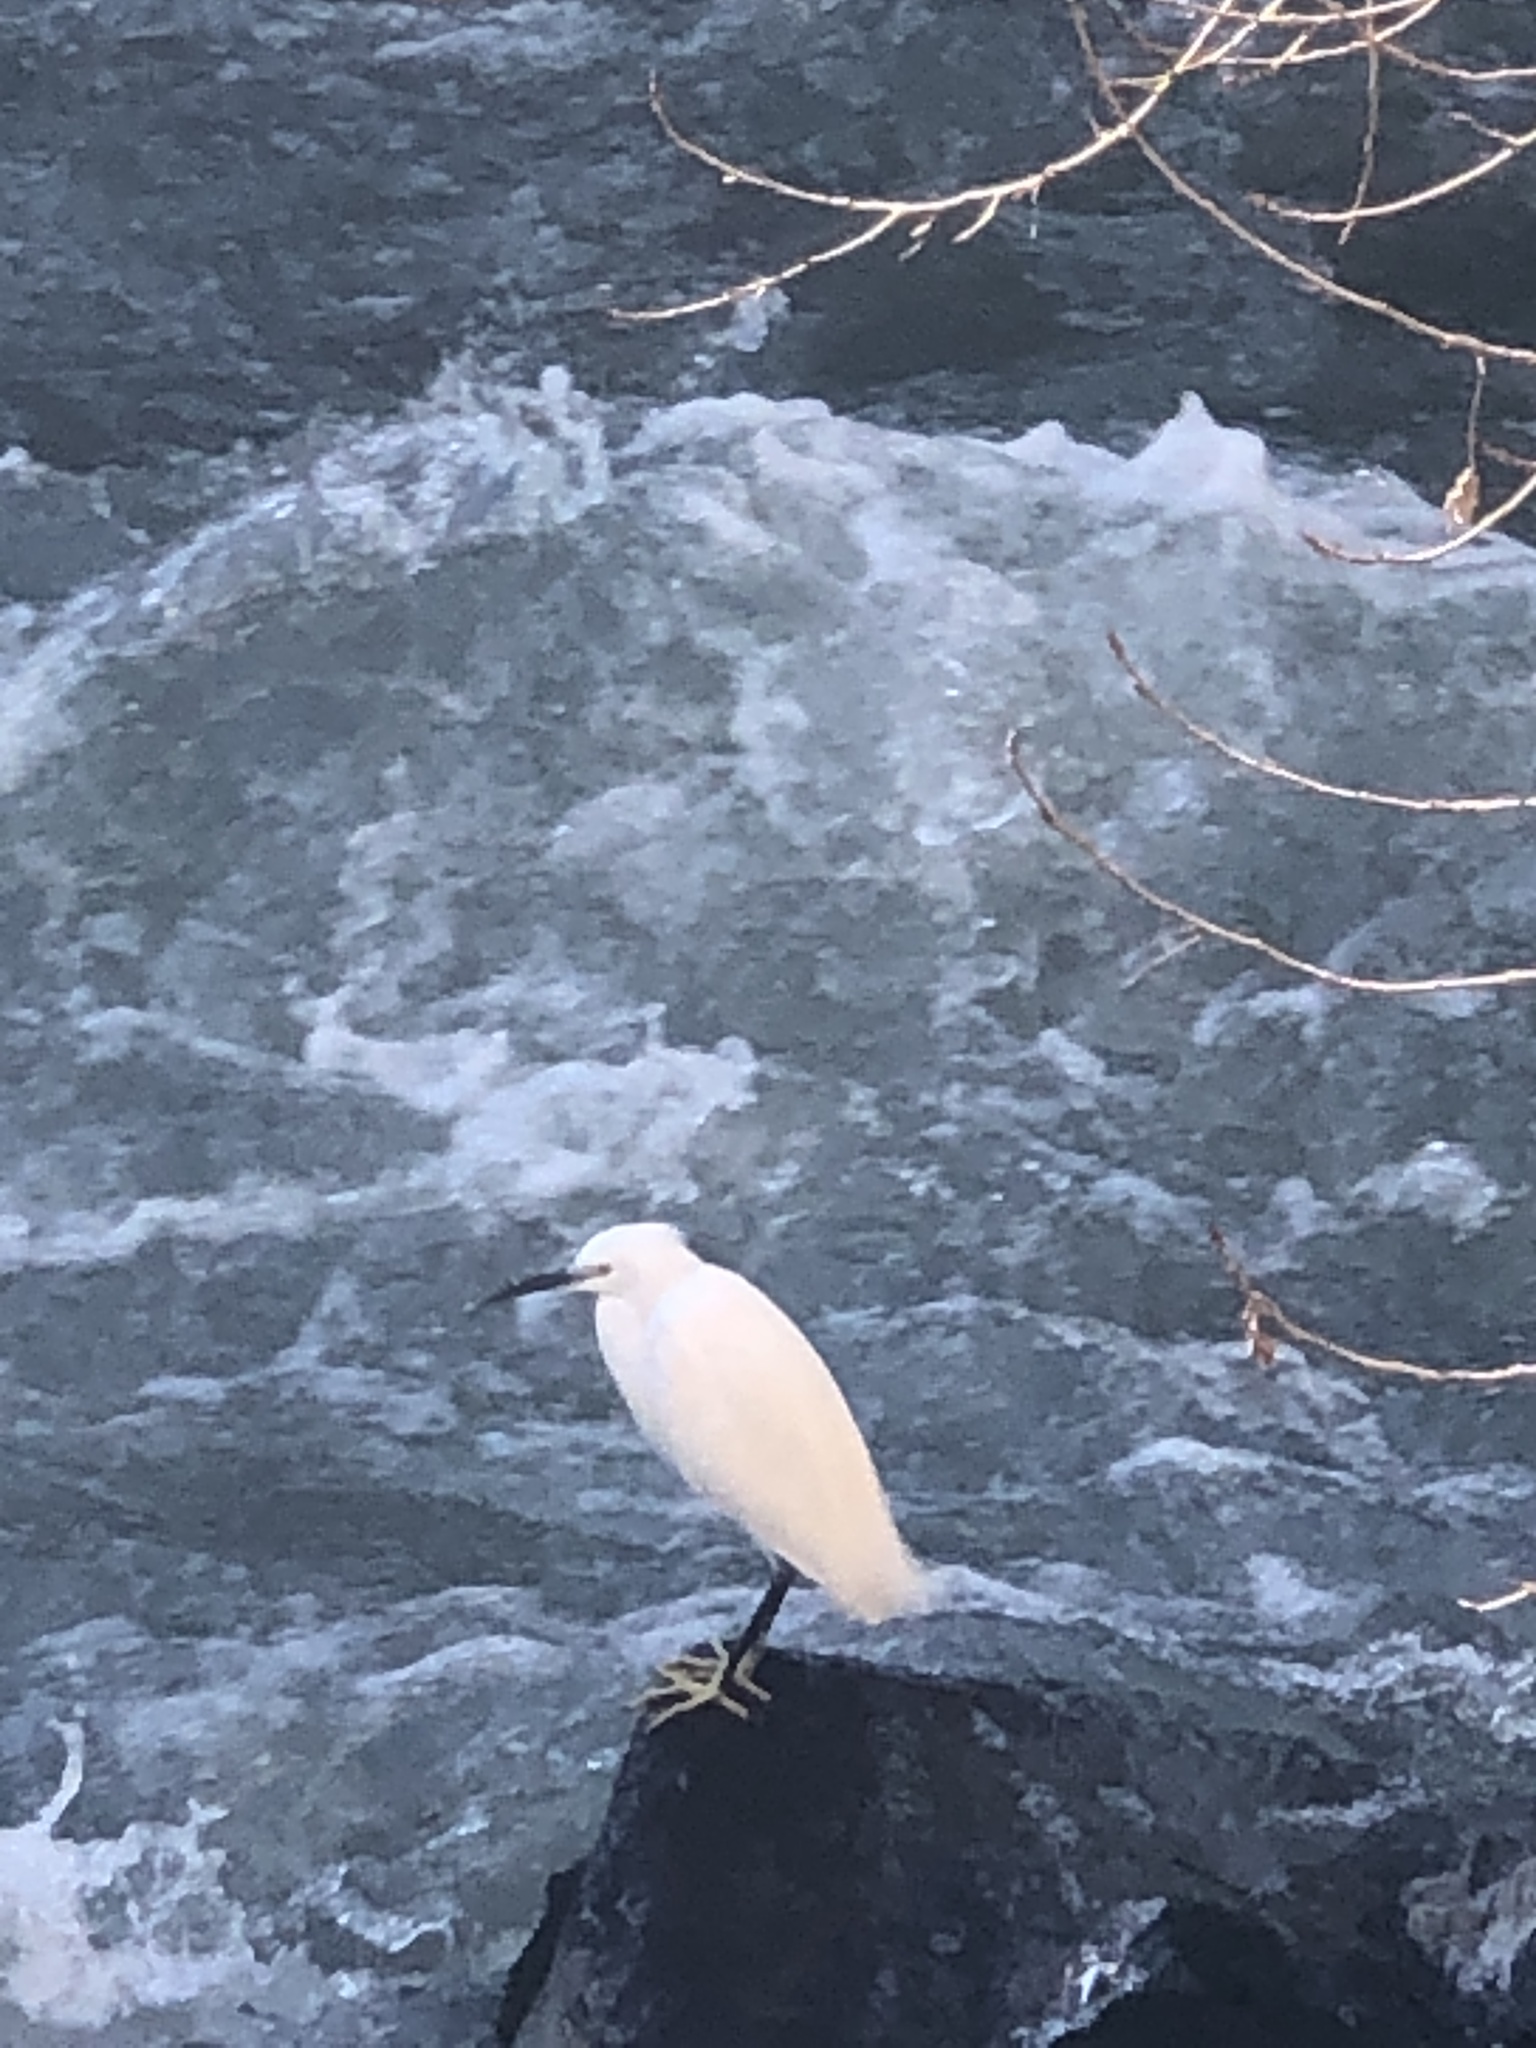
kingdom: Animalia
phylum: Chordata
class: Aves
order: Pelecaniformes
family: Ardeidae
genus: Egretta
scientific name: Egretta garzetta
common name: Little egret
